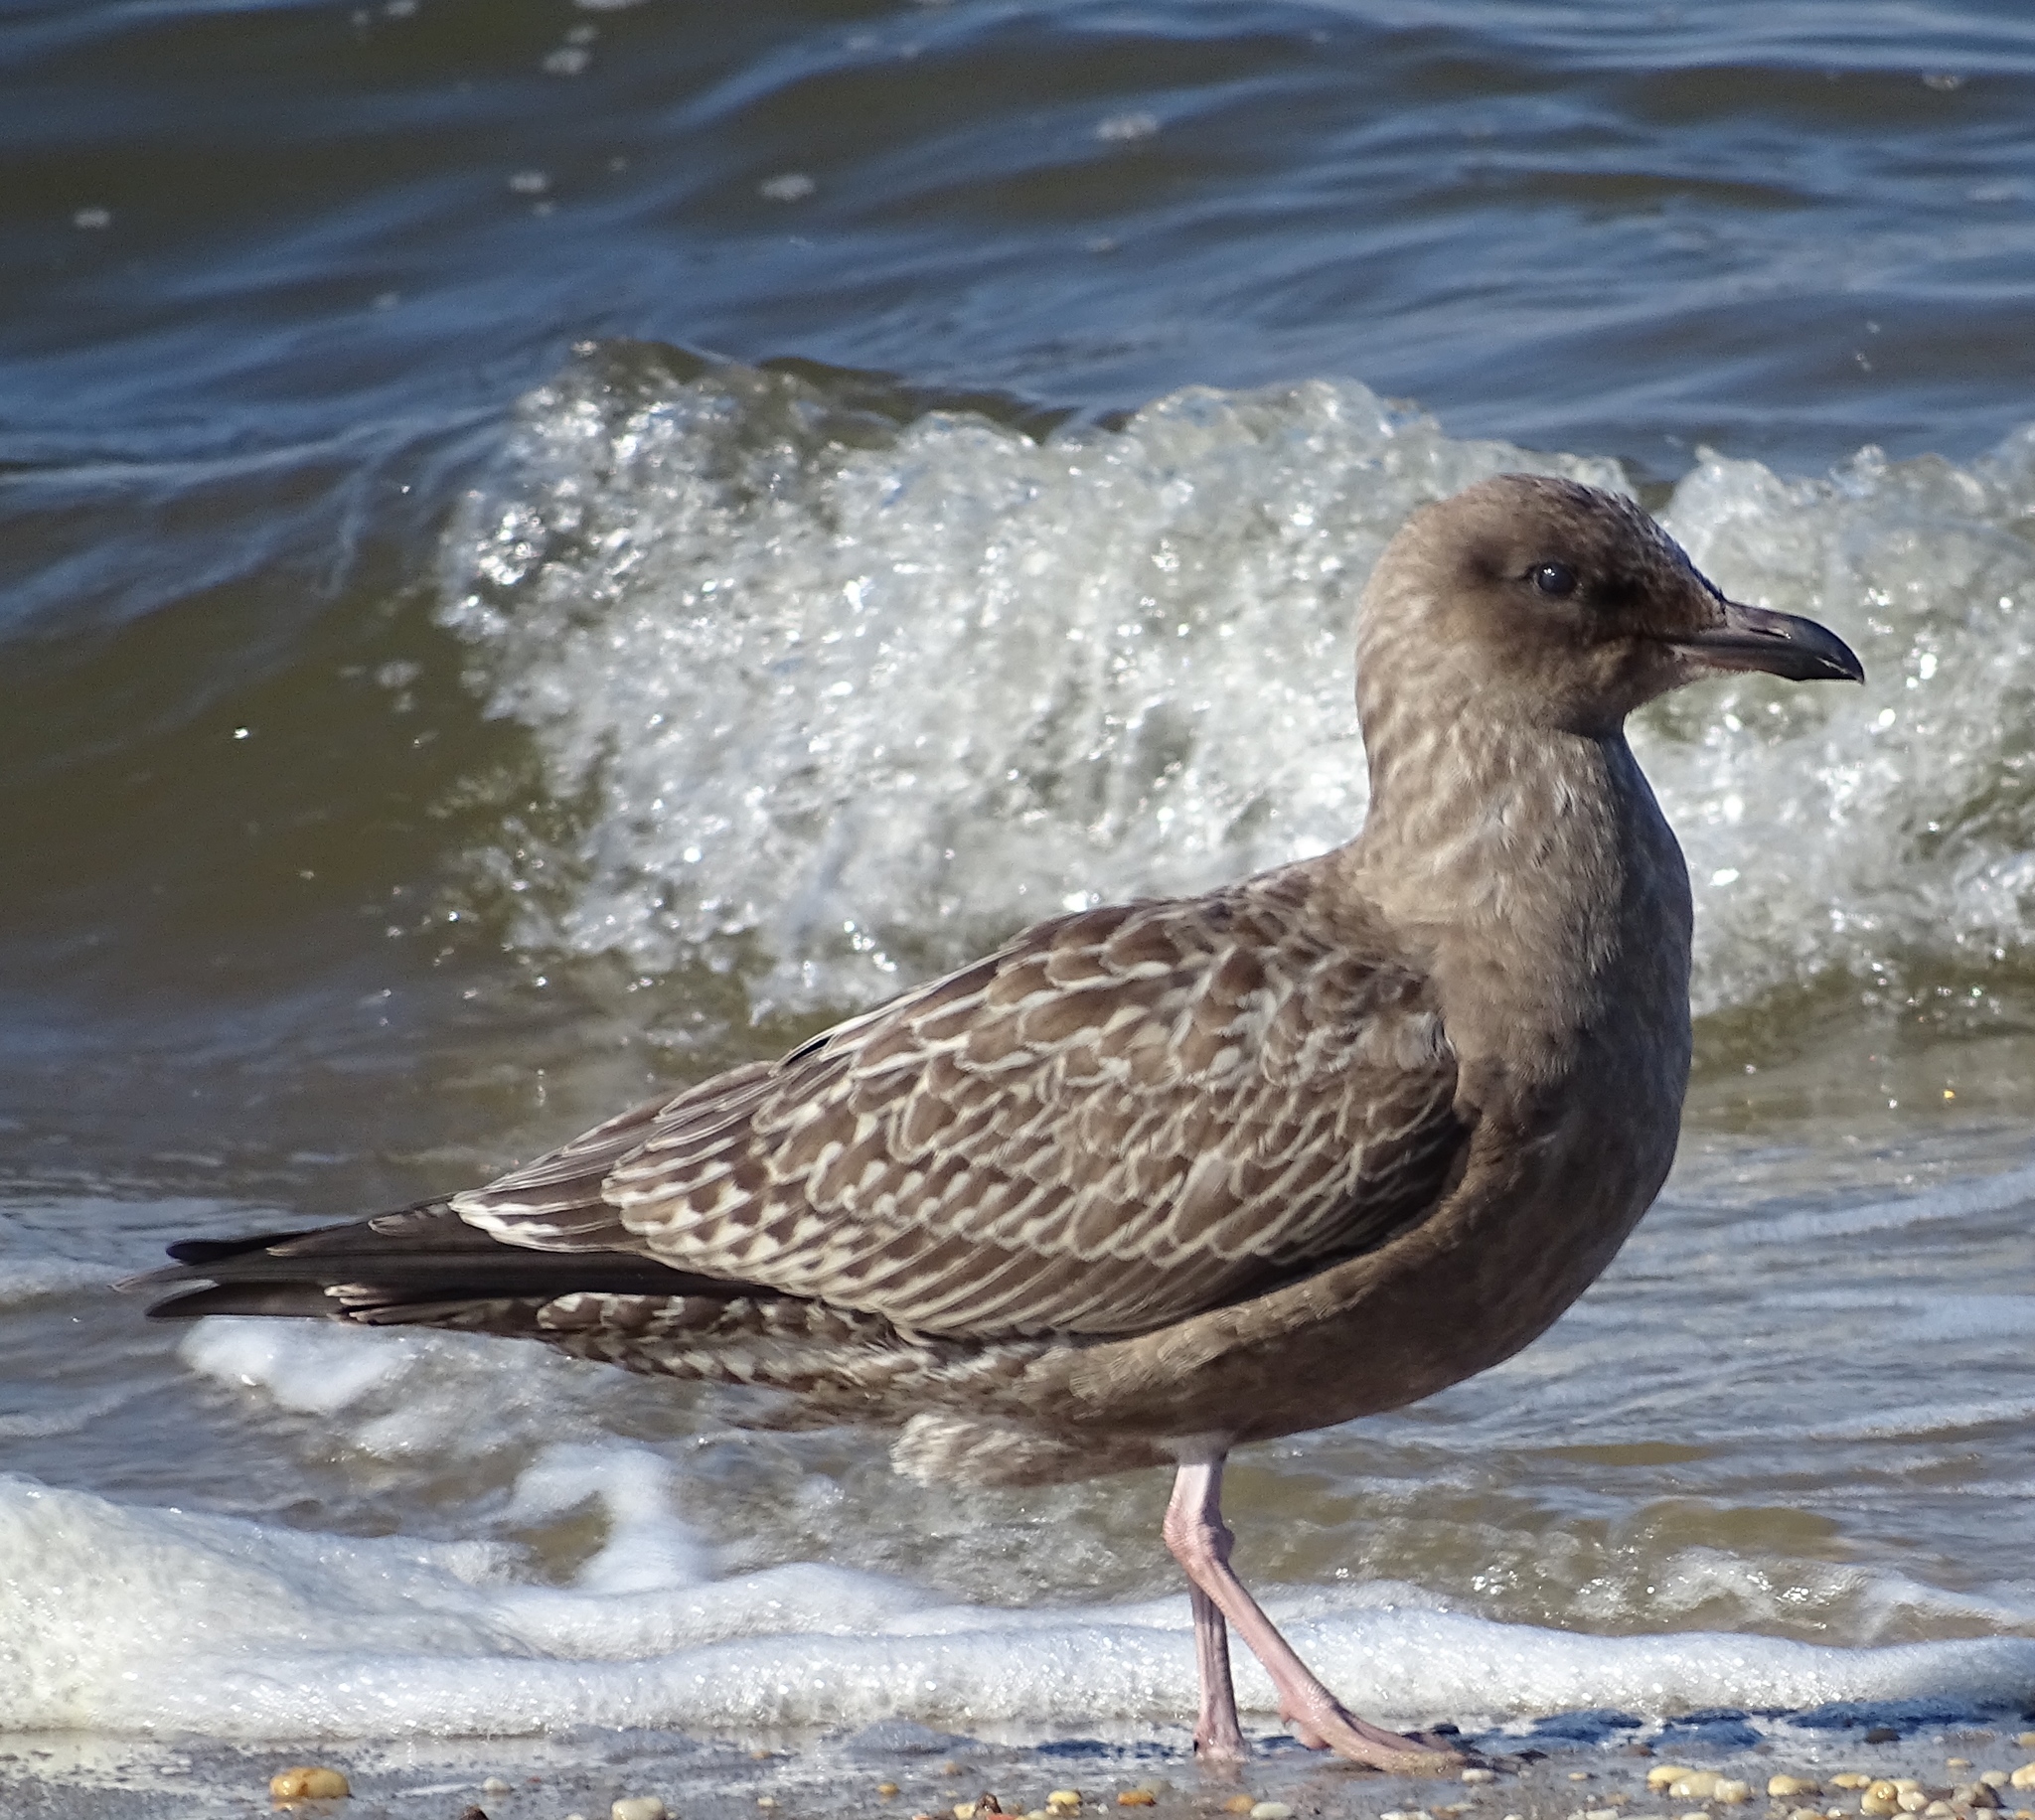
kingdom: Animalia
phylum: Chordata
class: Aves
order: Charadriiformes
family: Laridae
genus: Larus
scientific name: Larus argentatus
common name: Herring gull
